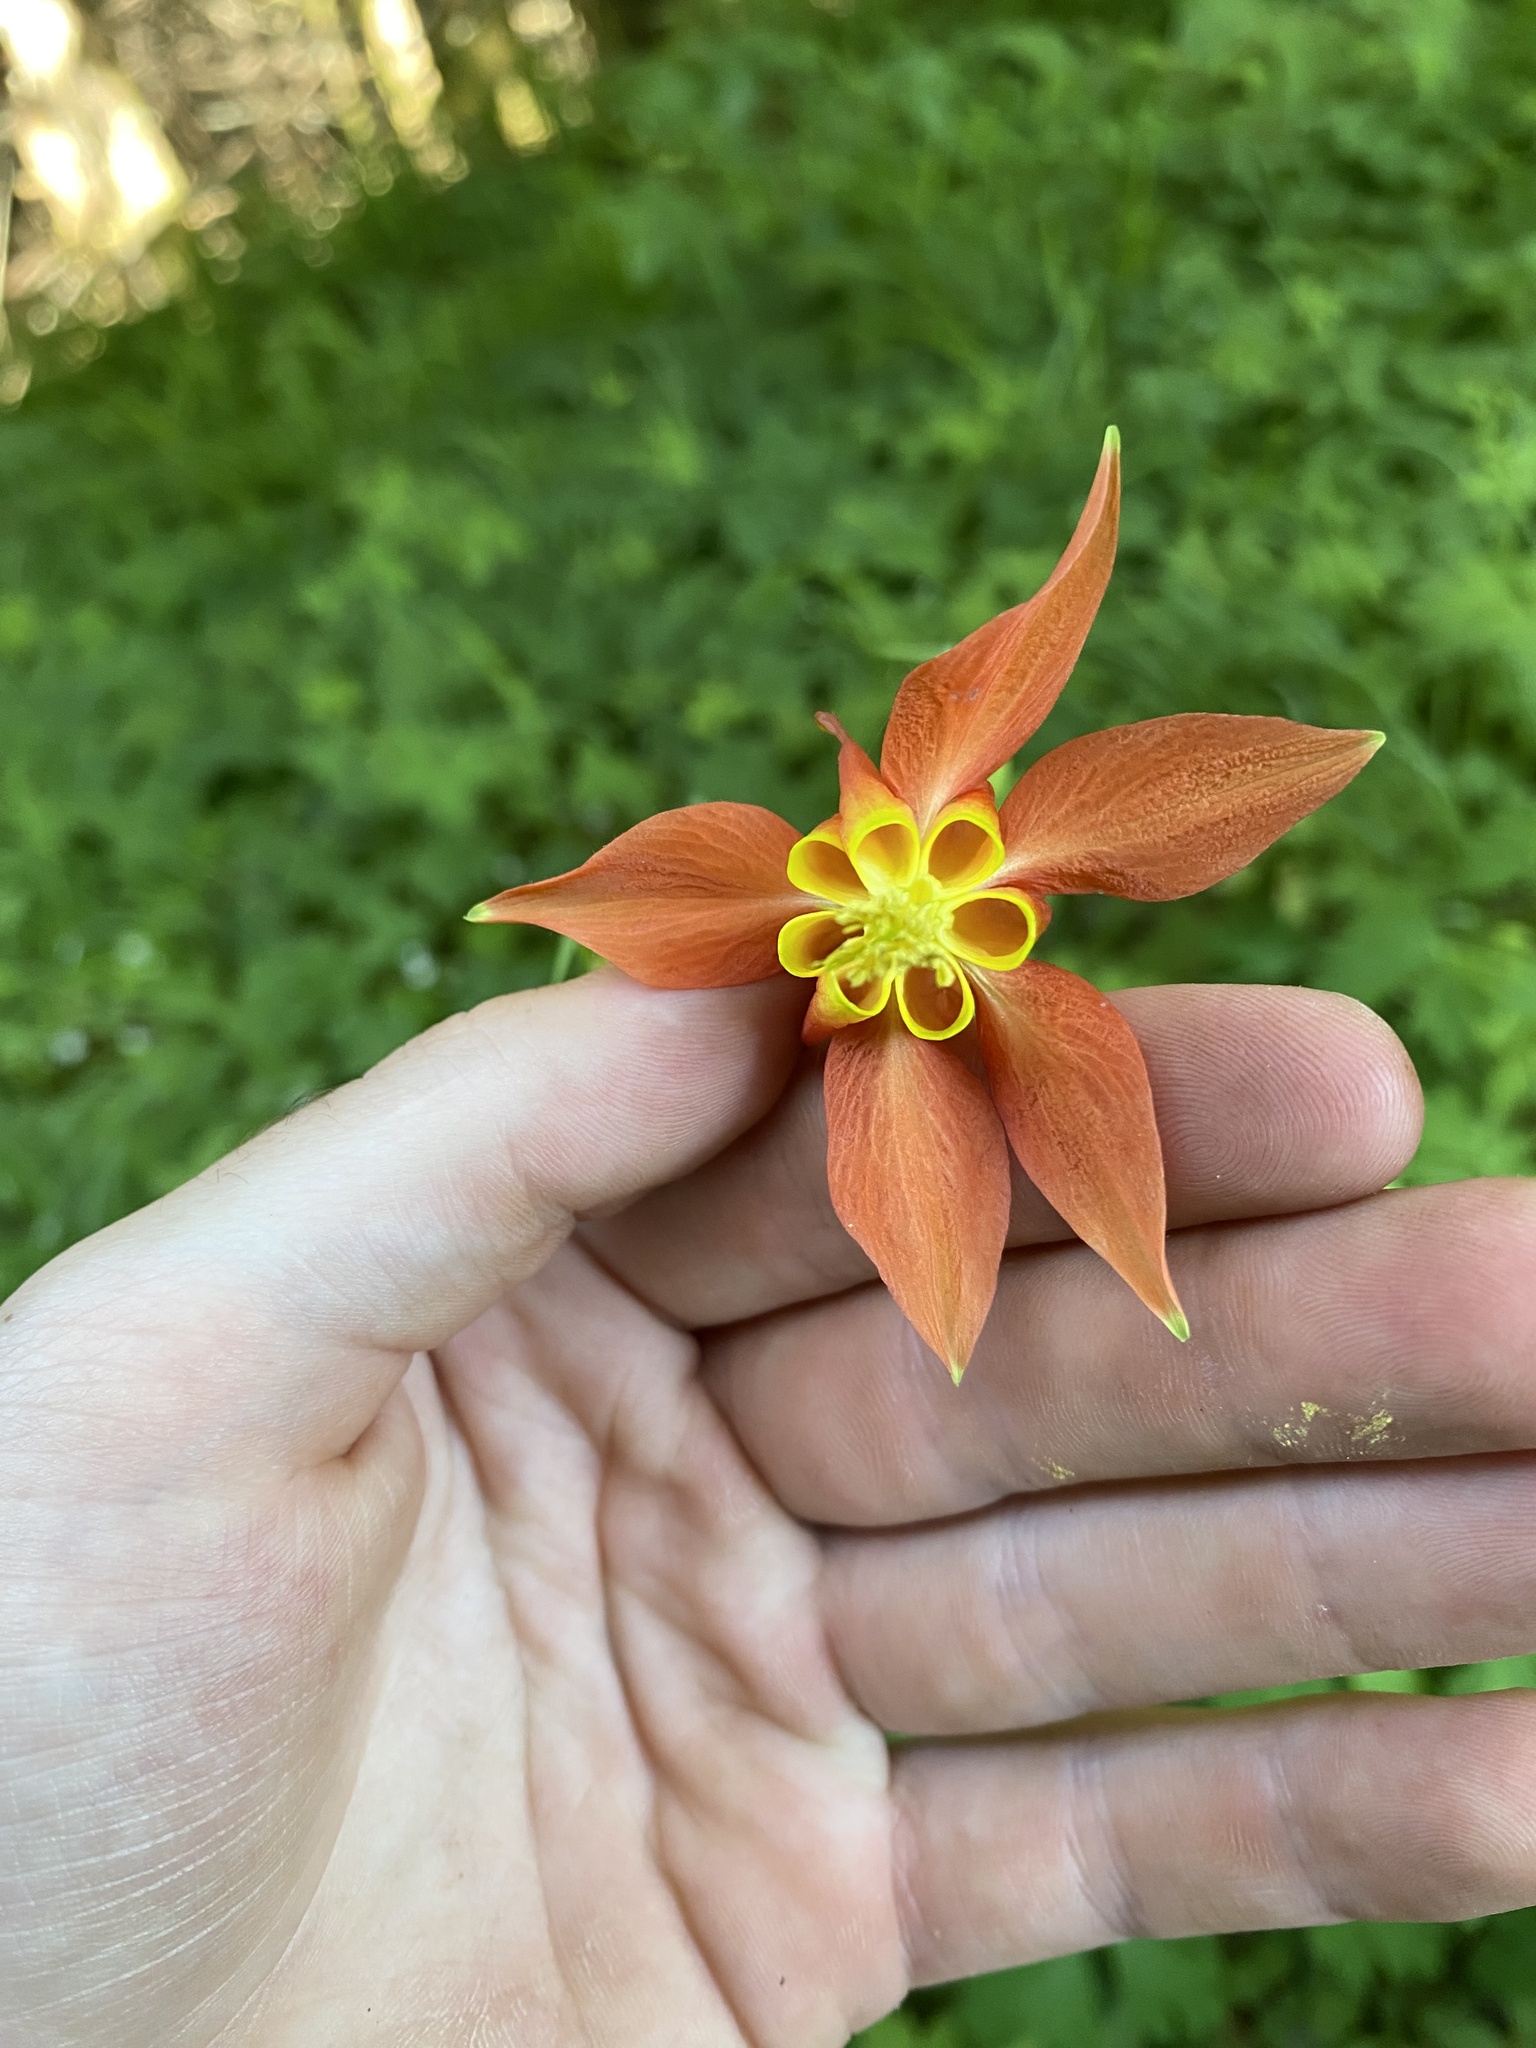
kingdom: Plantae
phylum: Tracheophyta
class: Magnoliopsida
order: Ranunculales
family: Ranunculaceae
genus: Aquilegia
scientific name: Aquilegia formosa
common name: Sitka columbine
